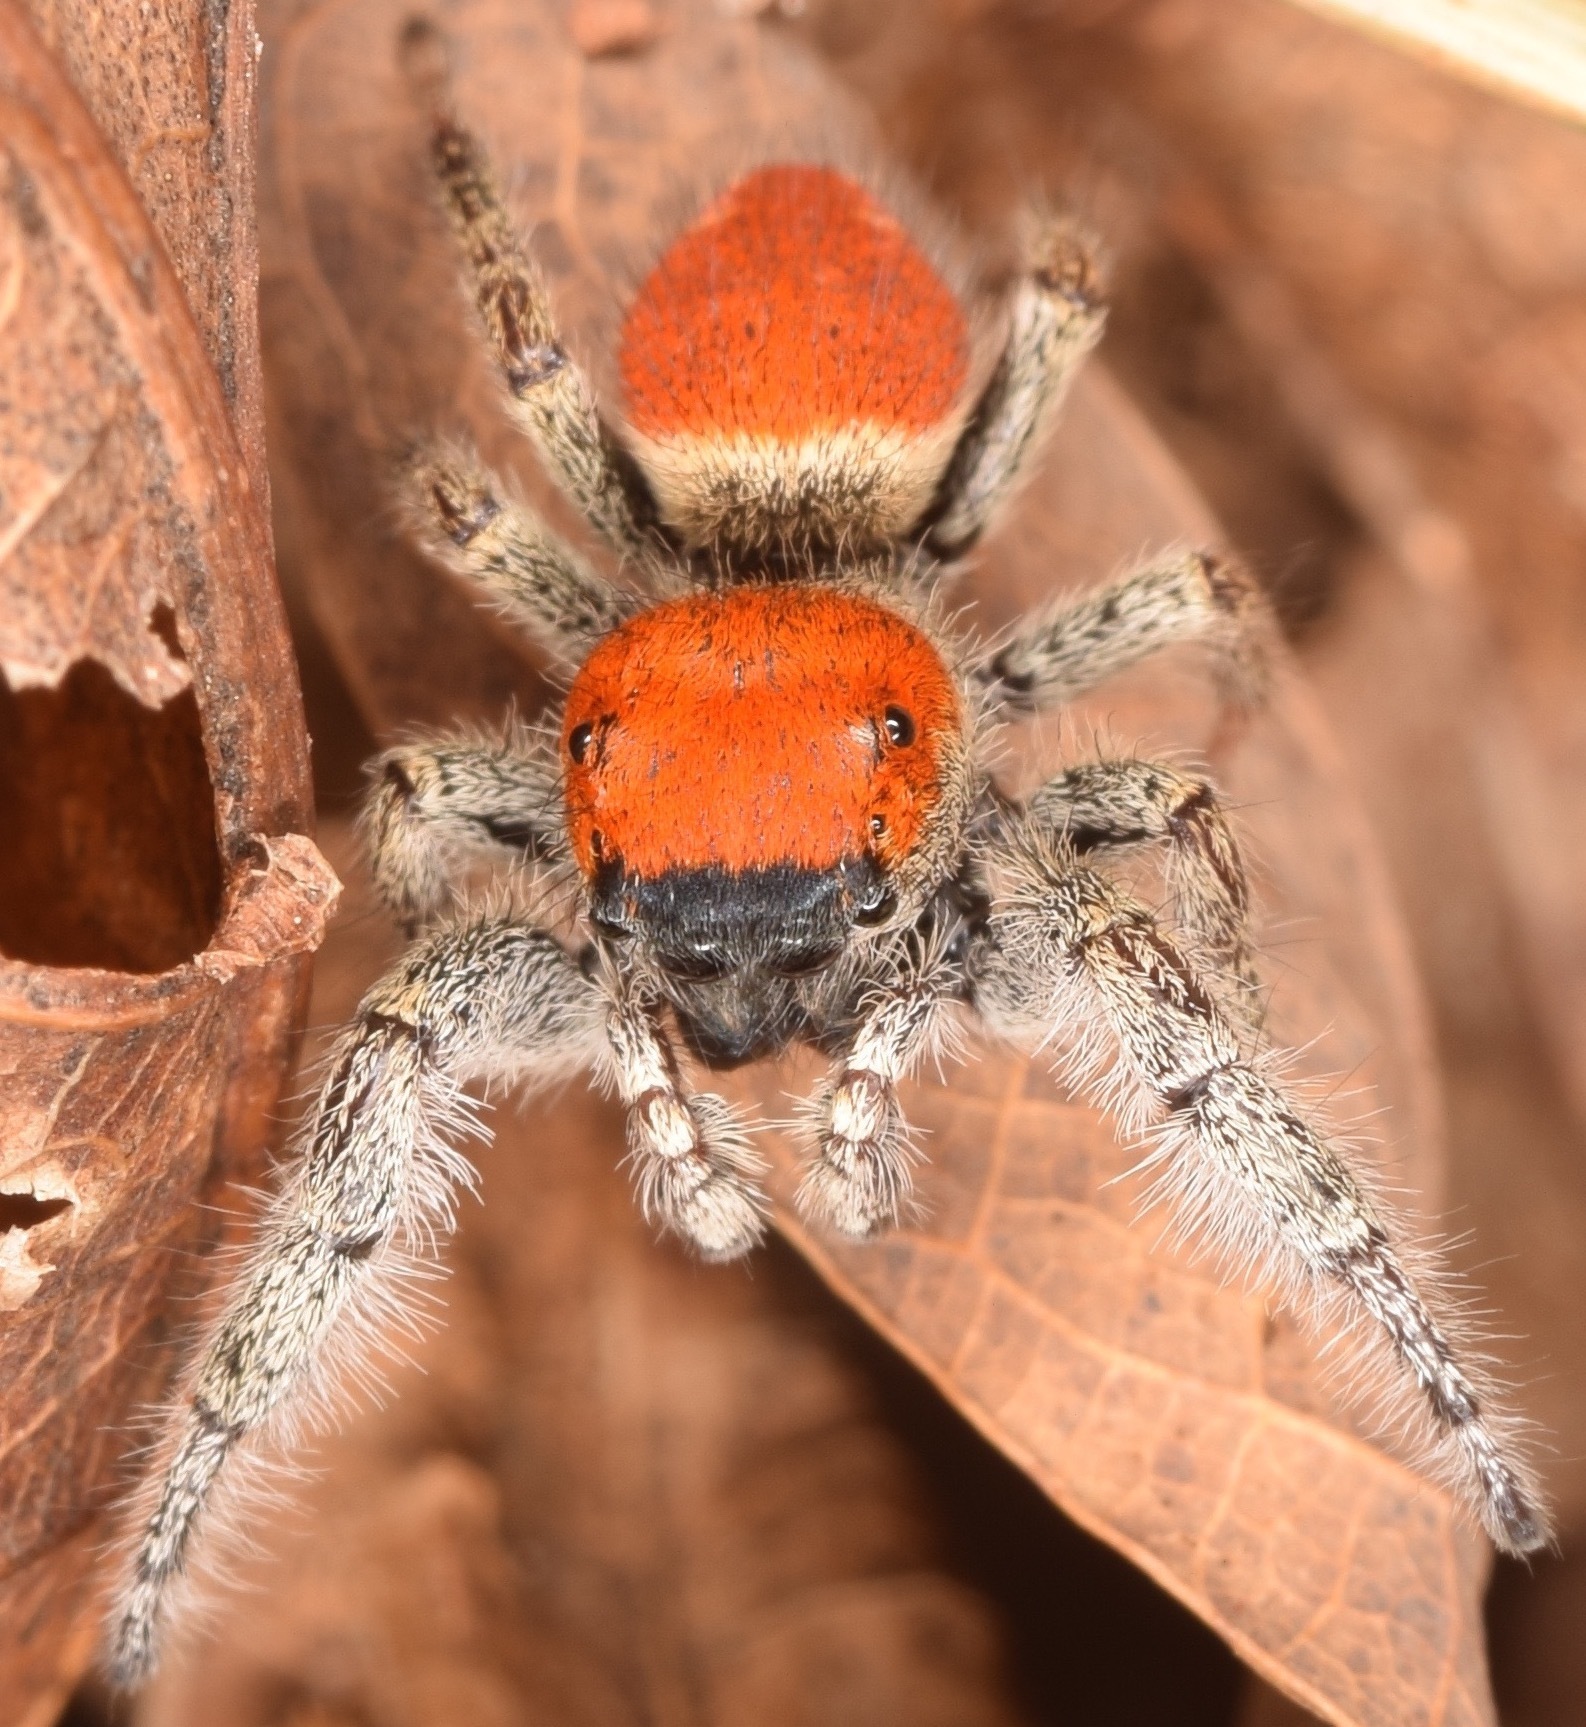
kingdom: Animalia
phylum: Arthropoda
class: Arachnida
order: Araneae
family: Salticidae
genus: Phidippus
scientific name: Phidippus whitmani
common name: Whitman's jumping spider
